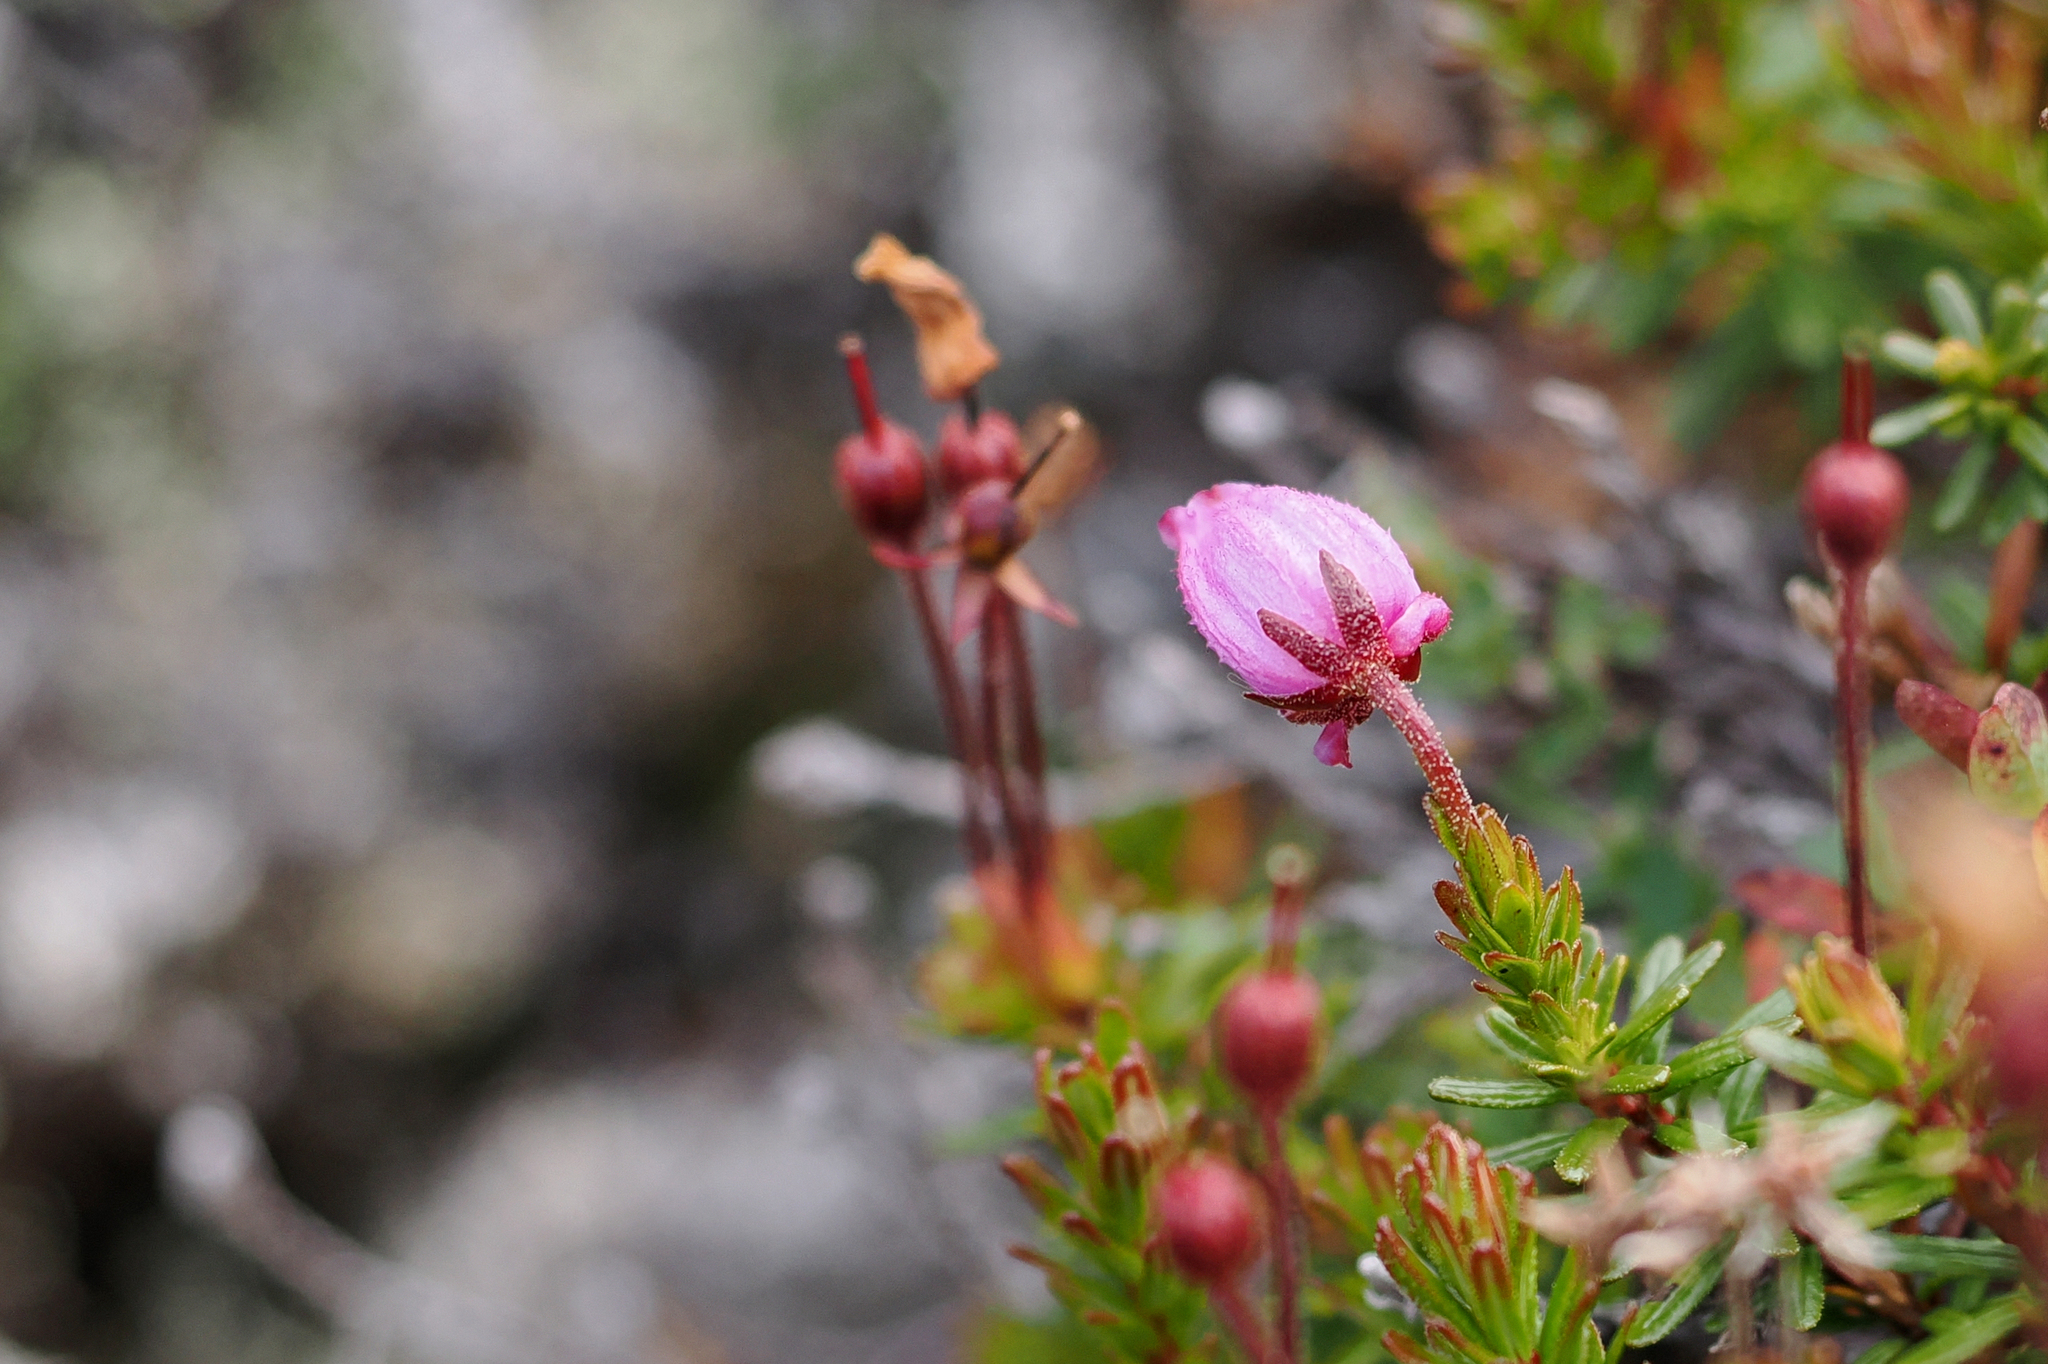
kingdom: Plantae
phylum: Tracheophyta
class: Magnoliopsida
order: Ericales
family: Ericaceae
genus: Phyllodoce
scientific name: Phyllodoce caerulea
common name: Blue heath
